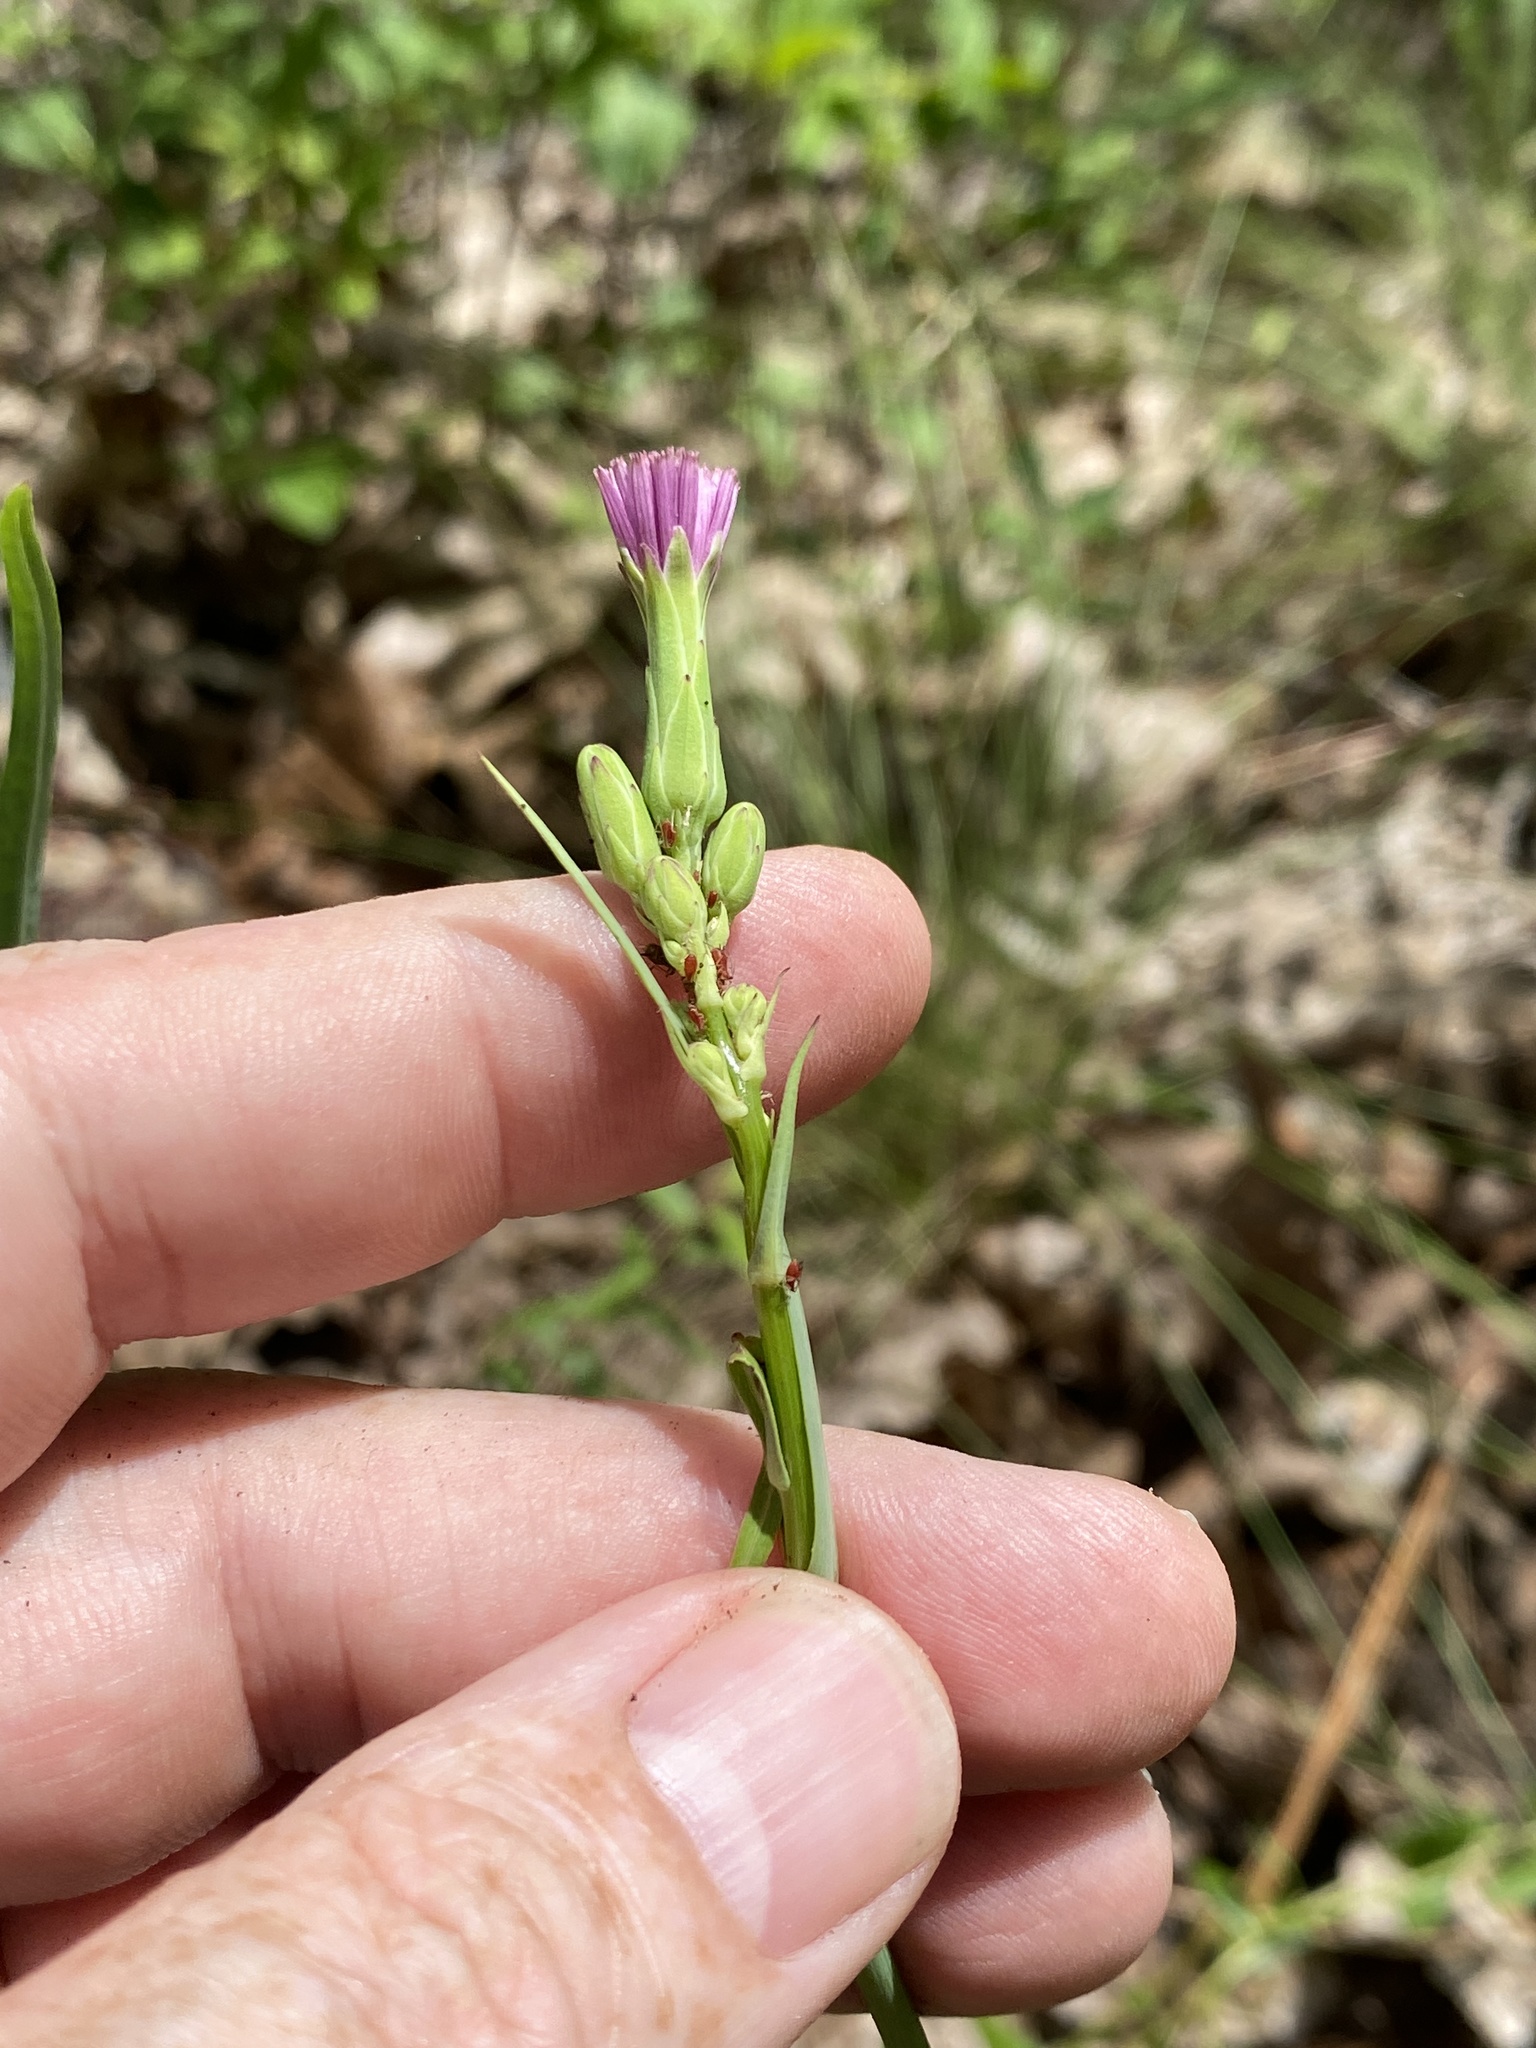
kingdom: Plantae
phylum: Tracheophyta
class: Magnoliopsida
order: Asterales
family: Asteraceae
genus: Lactuca
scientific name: Lactuca graminifolia
